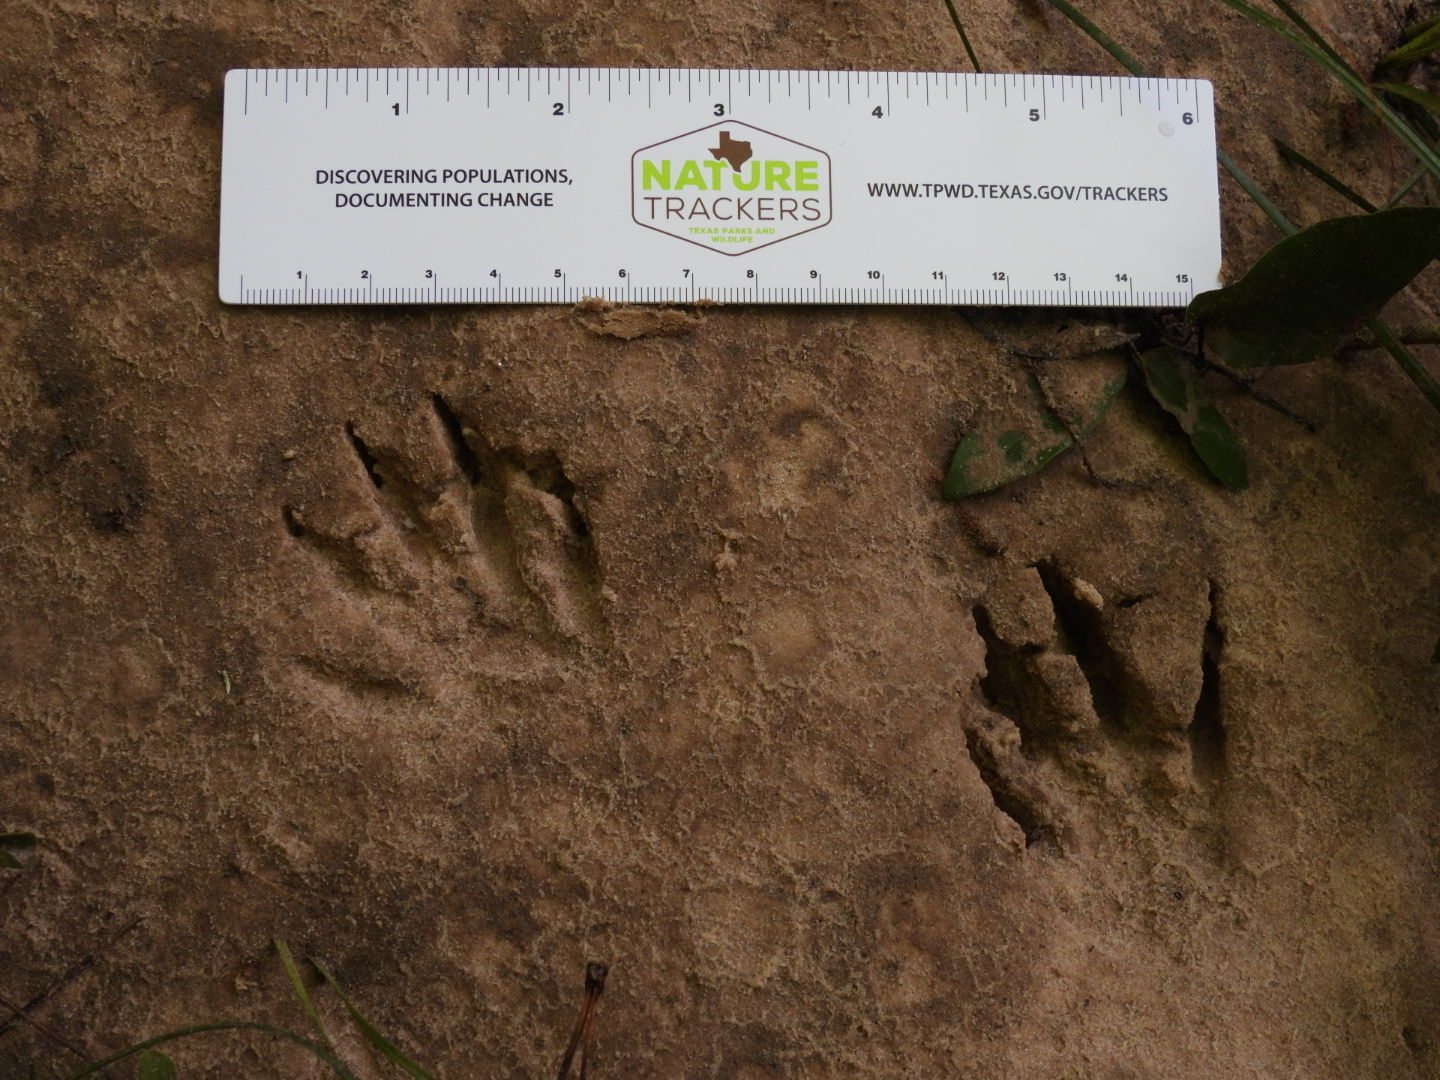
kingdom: Animalia
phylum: Chordata
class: Mammalia
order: Carnivora
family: Procyonidae
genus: Procyon
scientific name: Procyon lotor
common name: Raccoon
